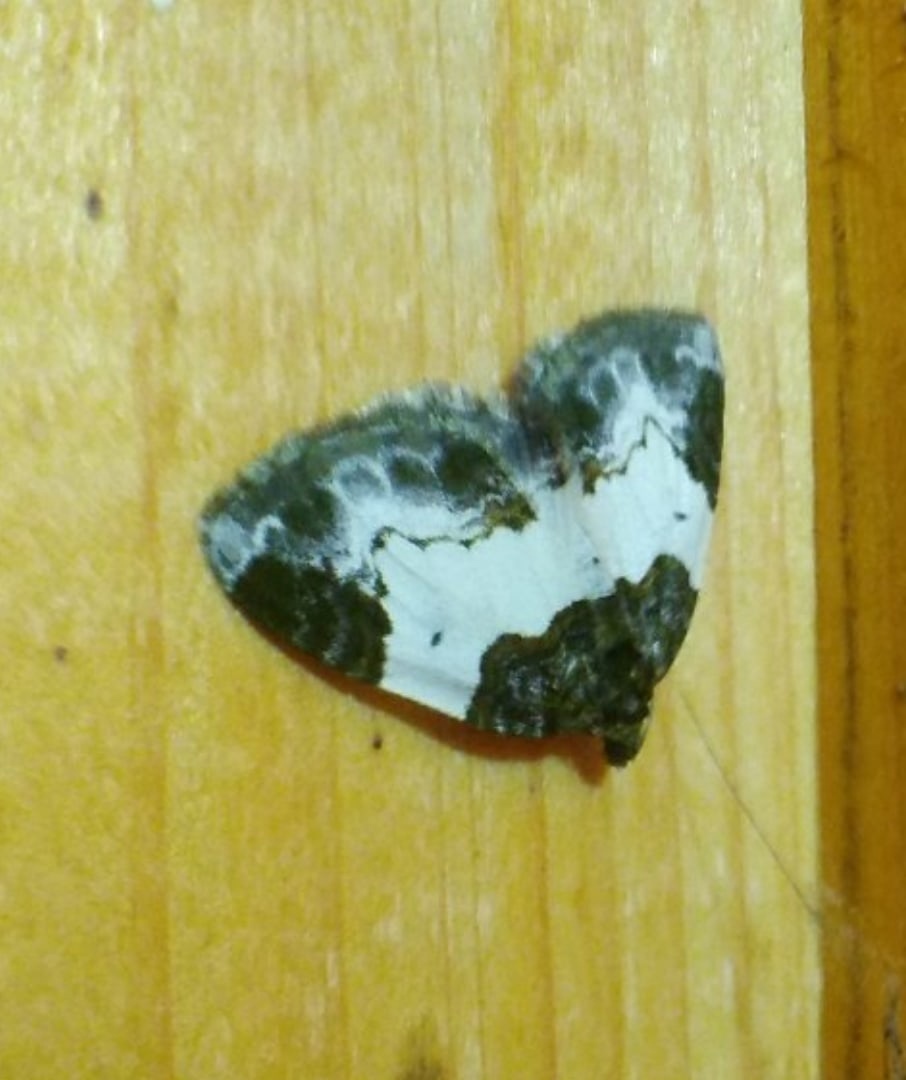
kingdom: Animalia
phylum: Arthropoda
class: Insecta
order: Lepidoptera
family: Geometridae
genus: Mesoleuca
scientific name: Mesoleuca albicillata
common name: Beautiful carpet
